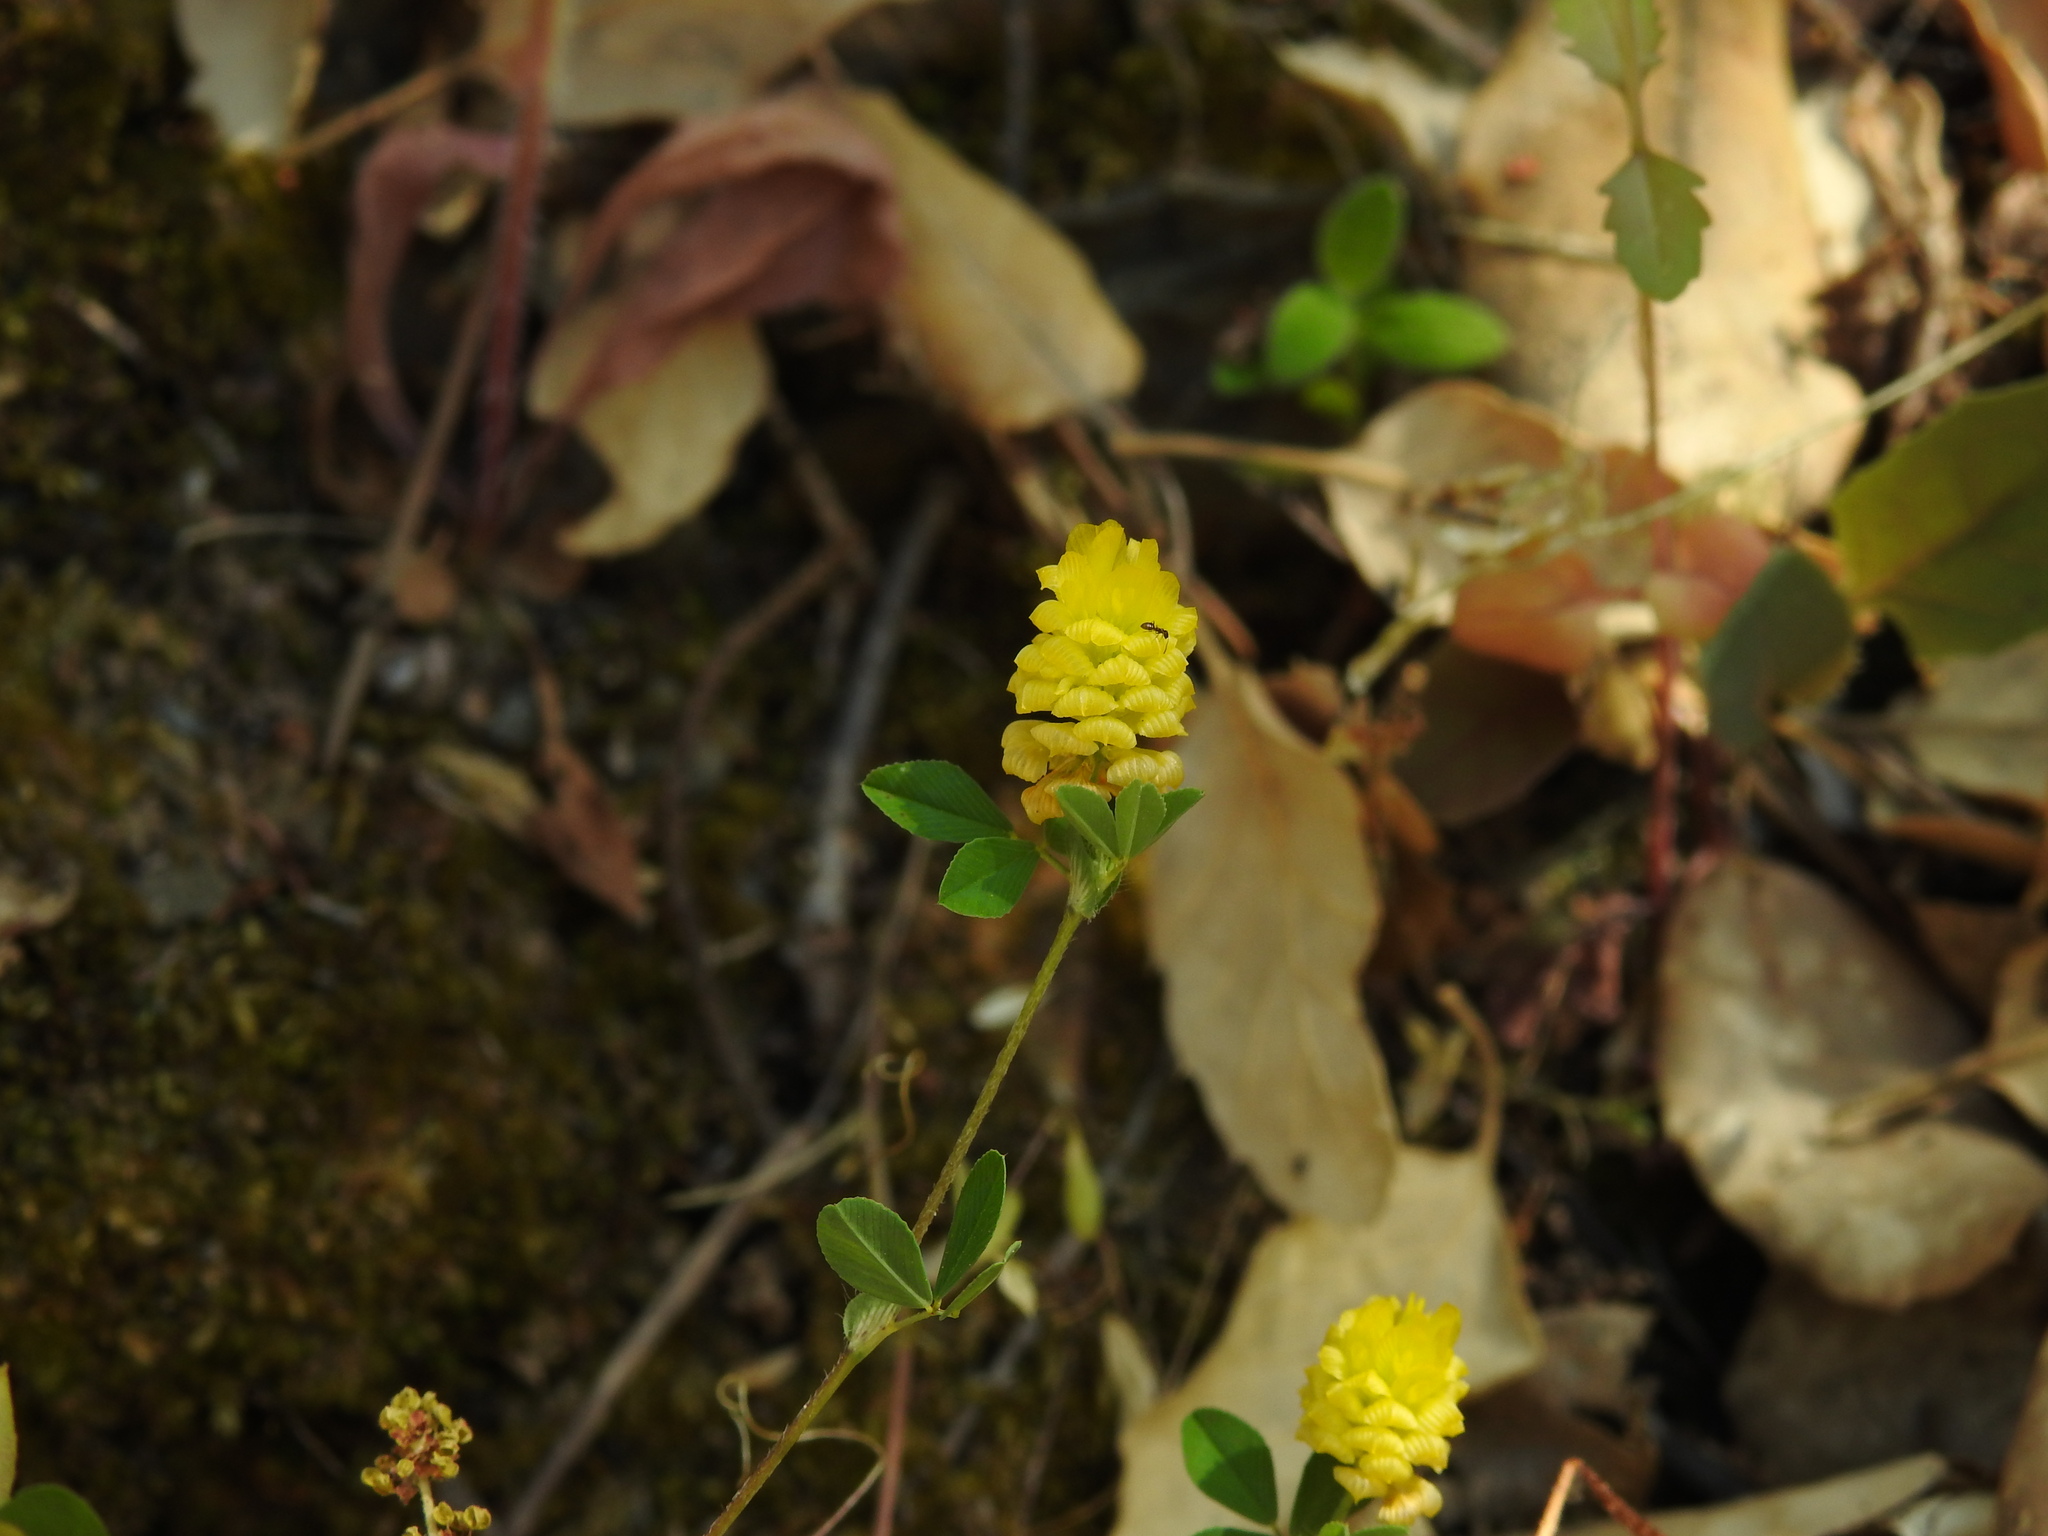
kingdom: Plantae
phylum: Tracheophyta
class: Magnoliopsida
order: Fabales
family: Fabaceae
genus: Trifolium
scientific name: Trifolium campestre
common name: Field clover
